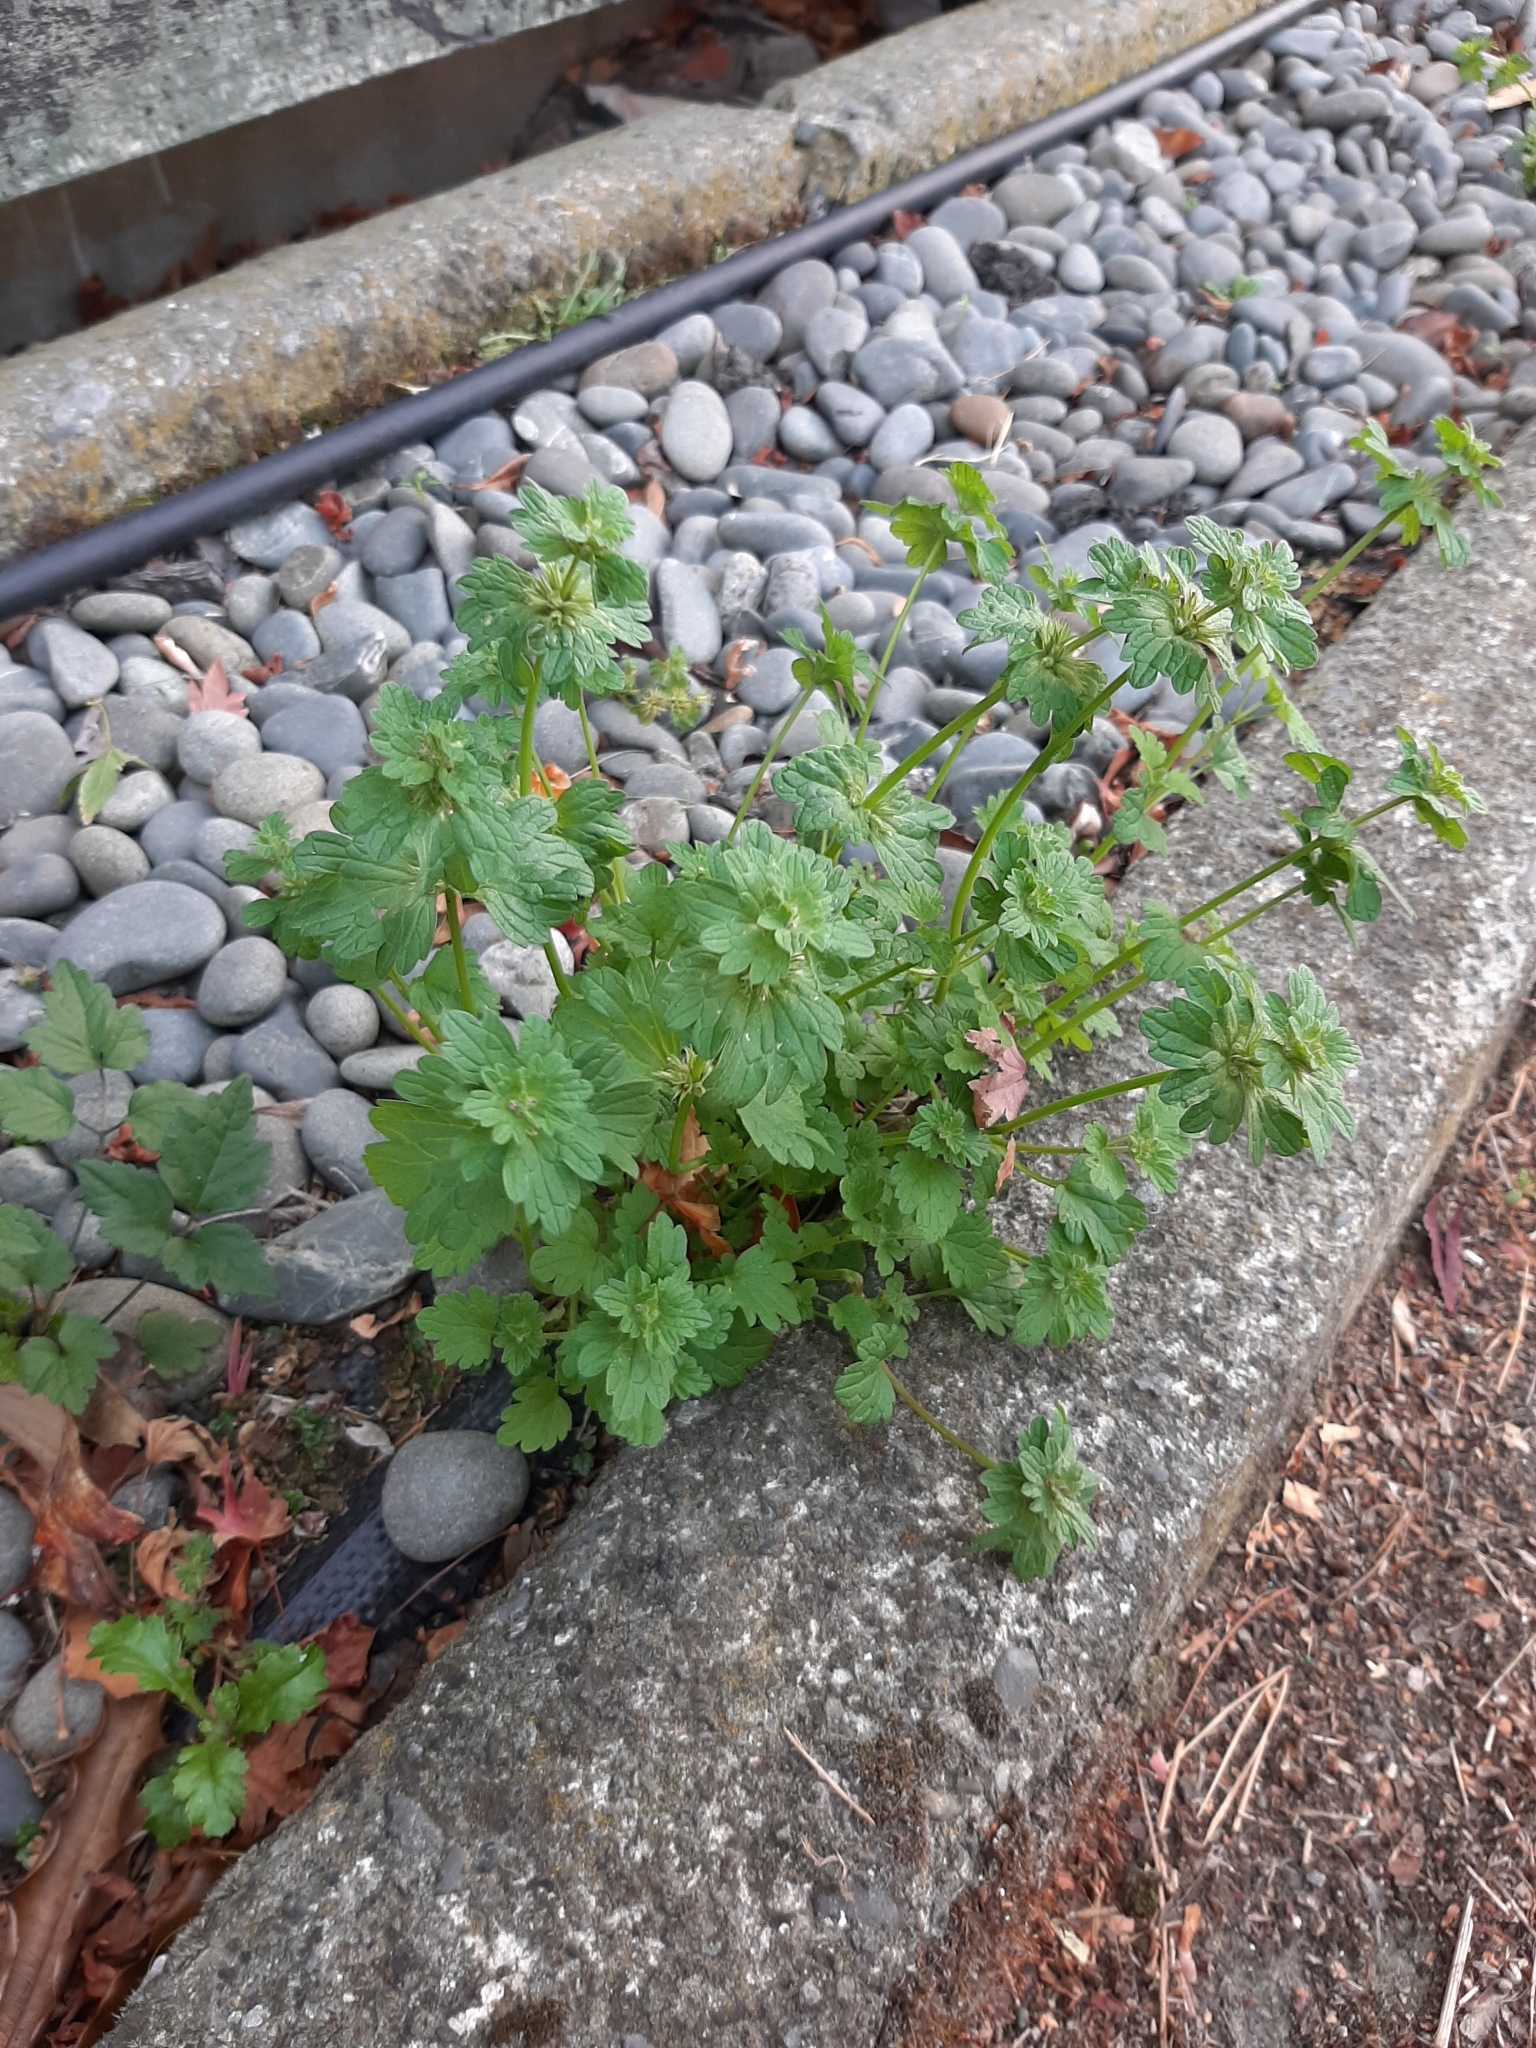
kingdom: Plantae
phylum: Tracheophyta
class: Magnoliopsida
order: Lamiales
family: Lamiaceae
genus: Lamium
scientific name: Lamium amplexicaule
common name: Henbit dead-nettle
